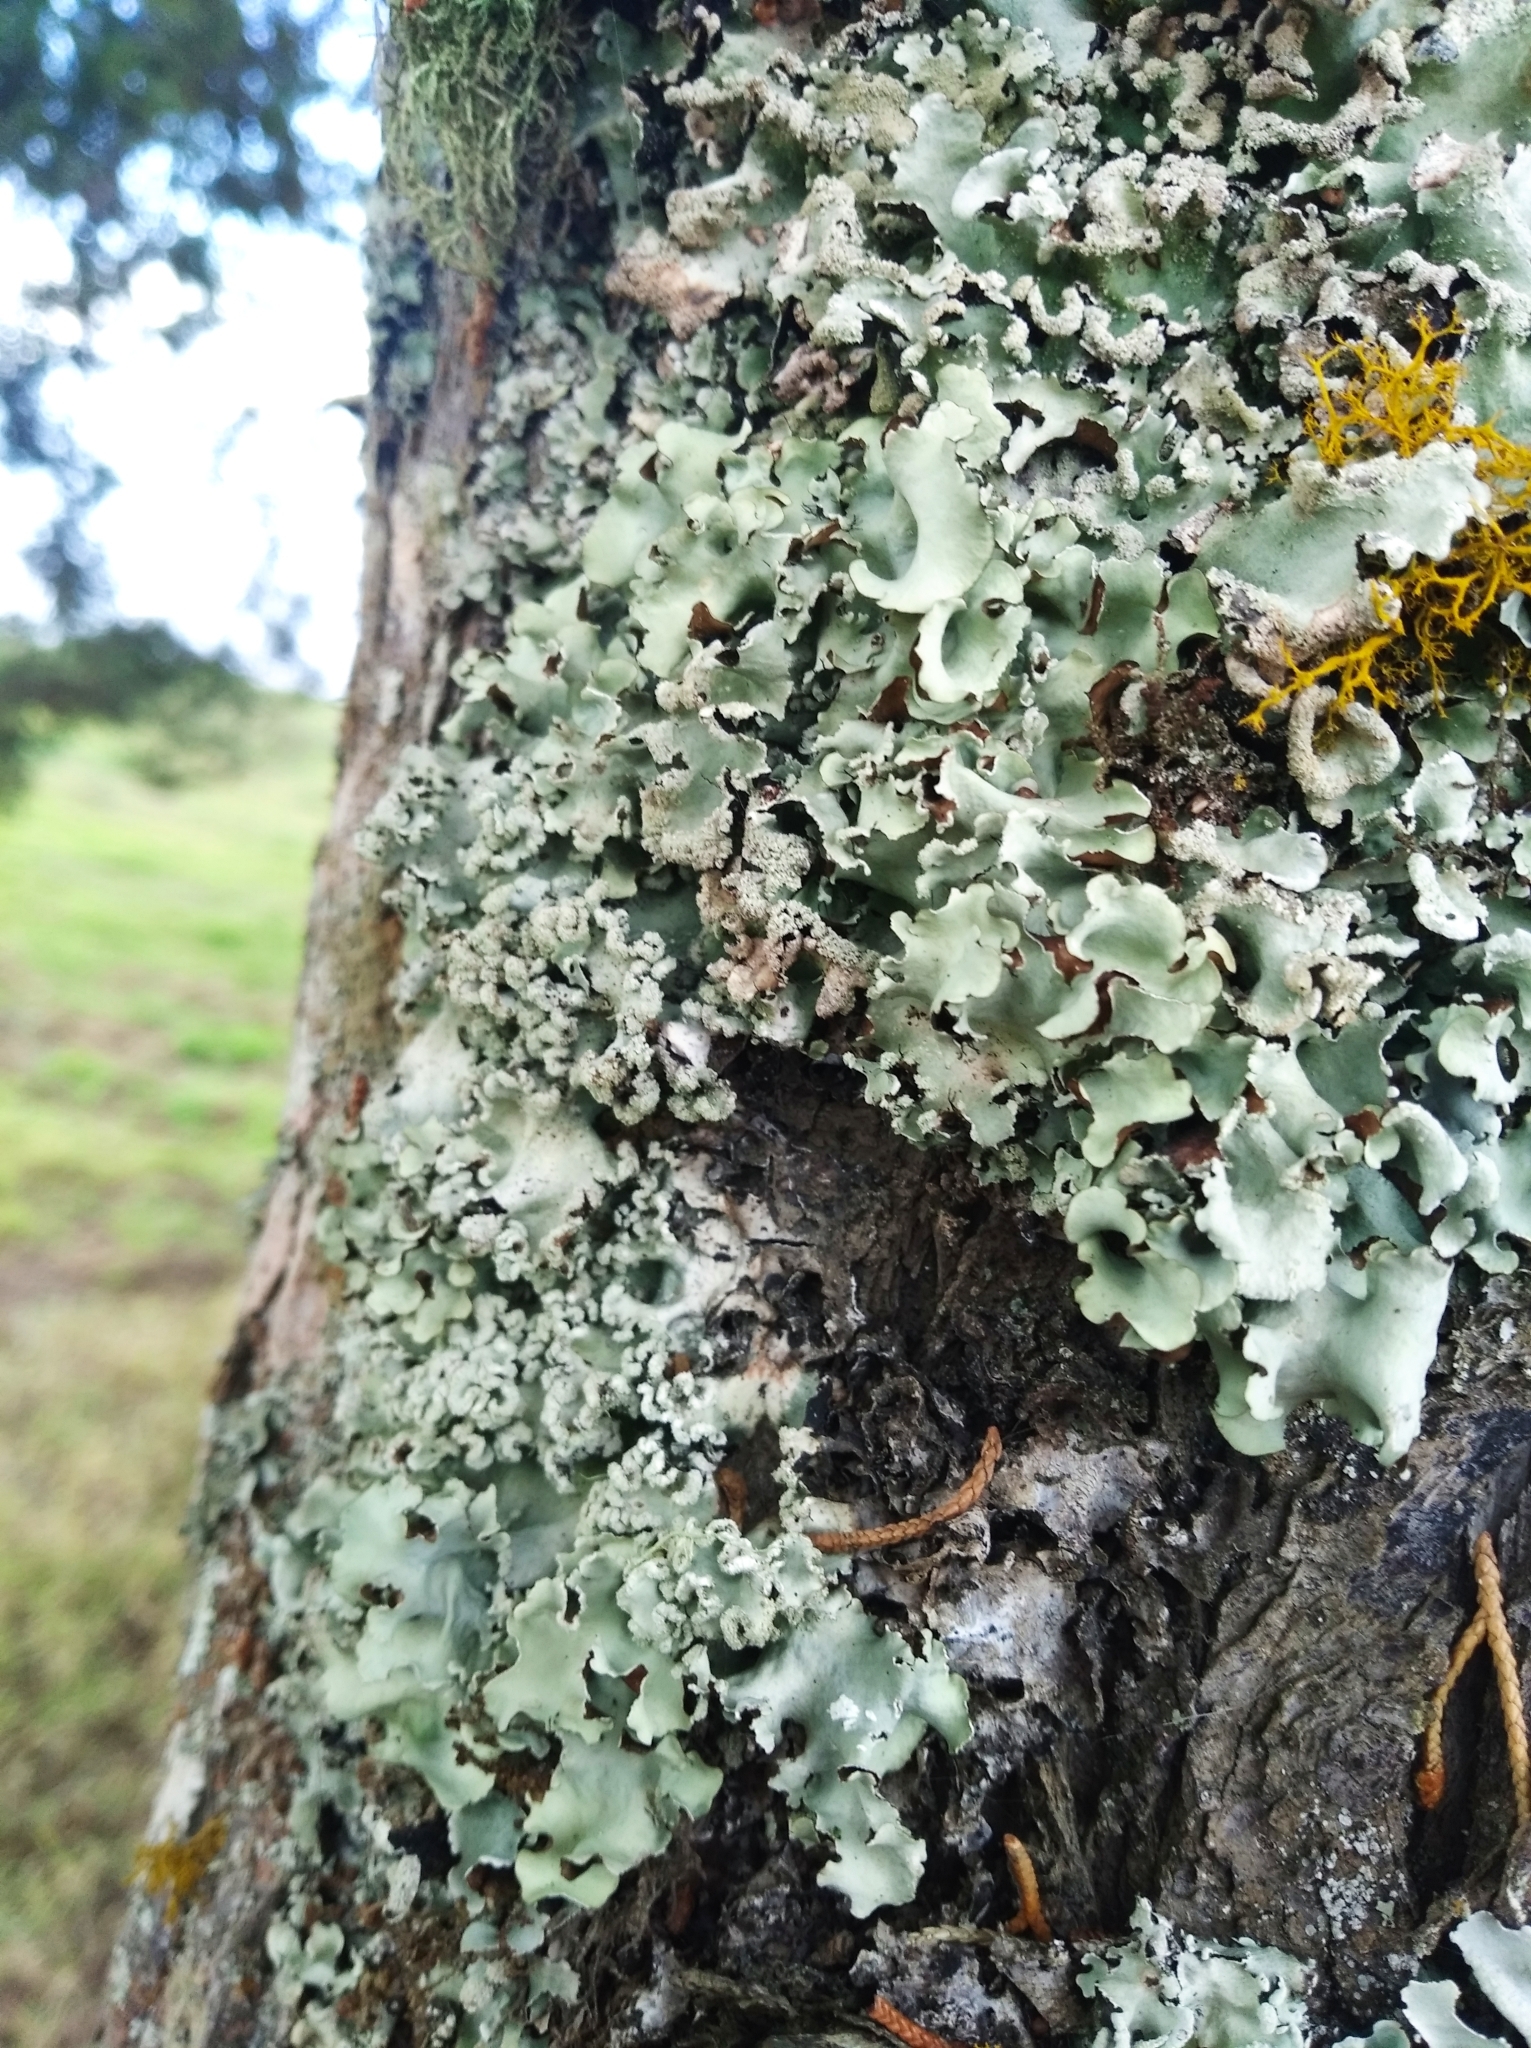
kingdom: Fungi
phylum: Ascomycota
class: Lecanoromycetes
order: Lecanorales
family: Parmeliaceae
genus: Parmotrema
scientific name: Parmotrema perlatum
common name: Black stone flower
